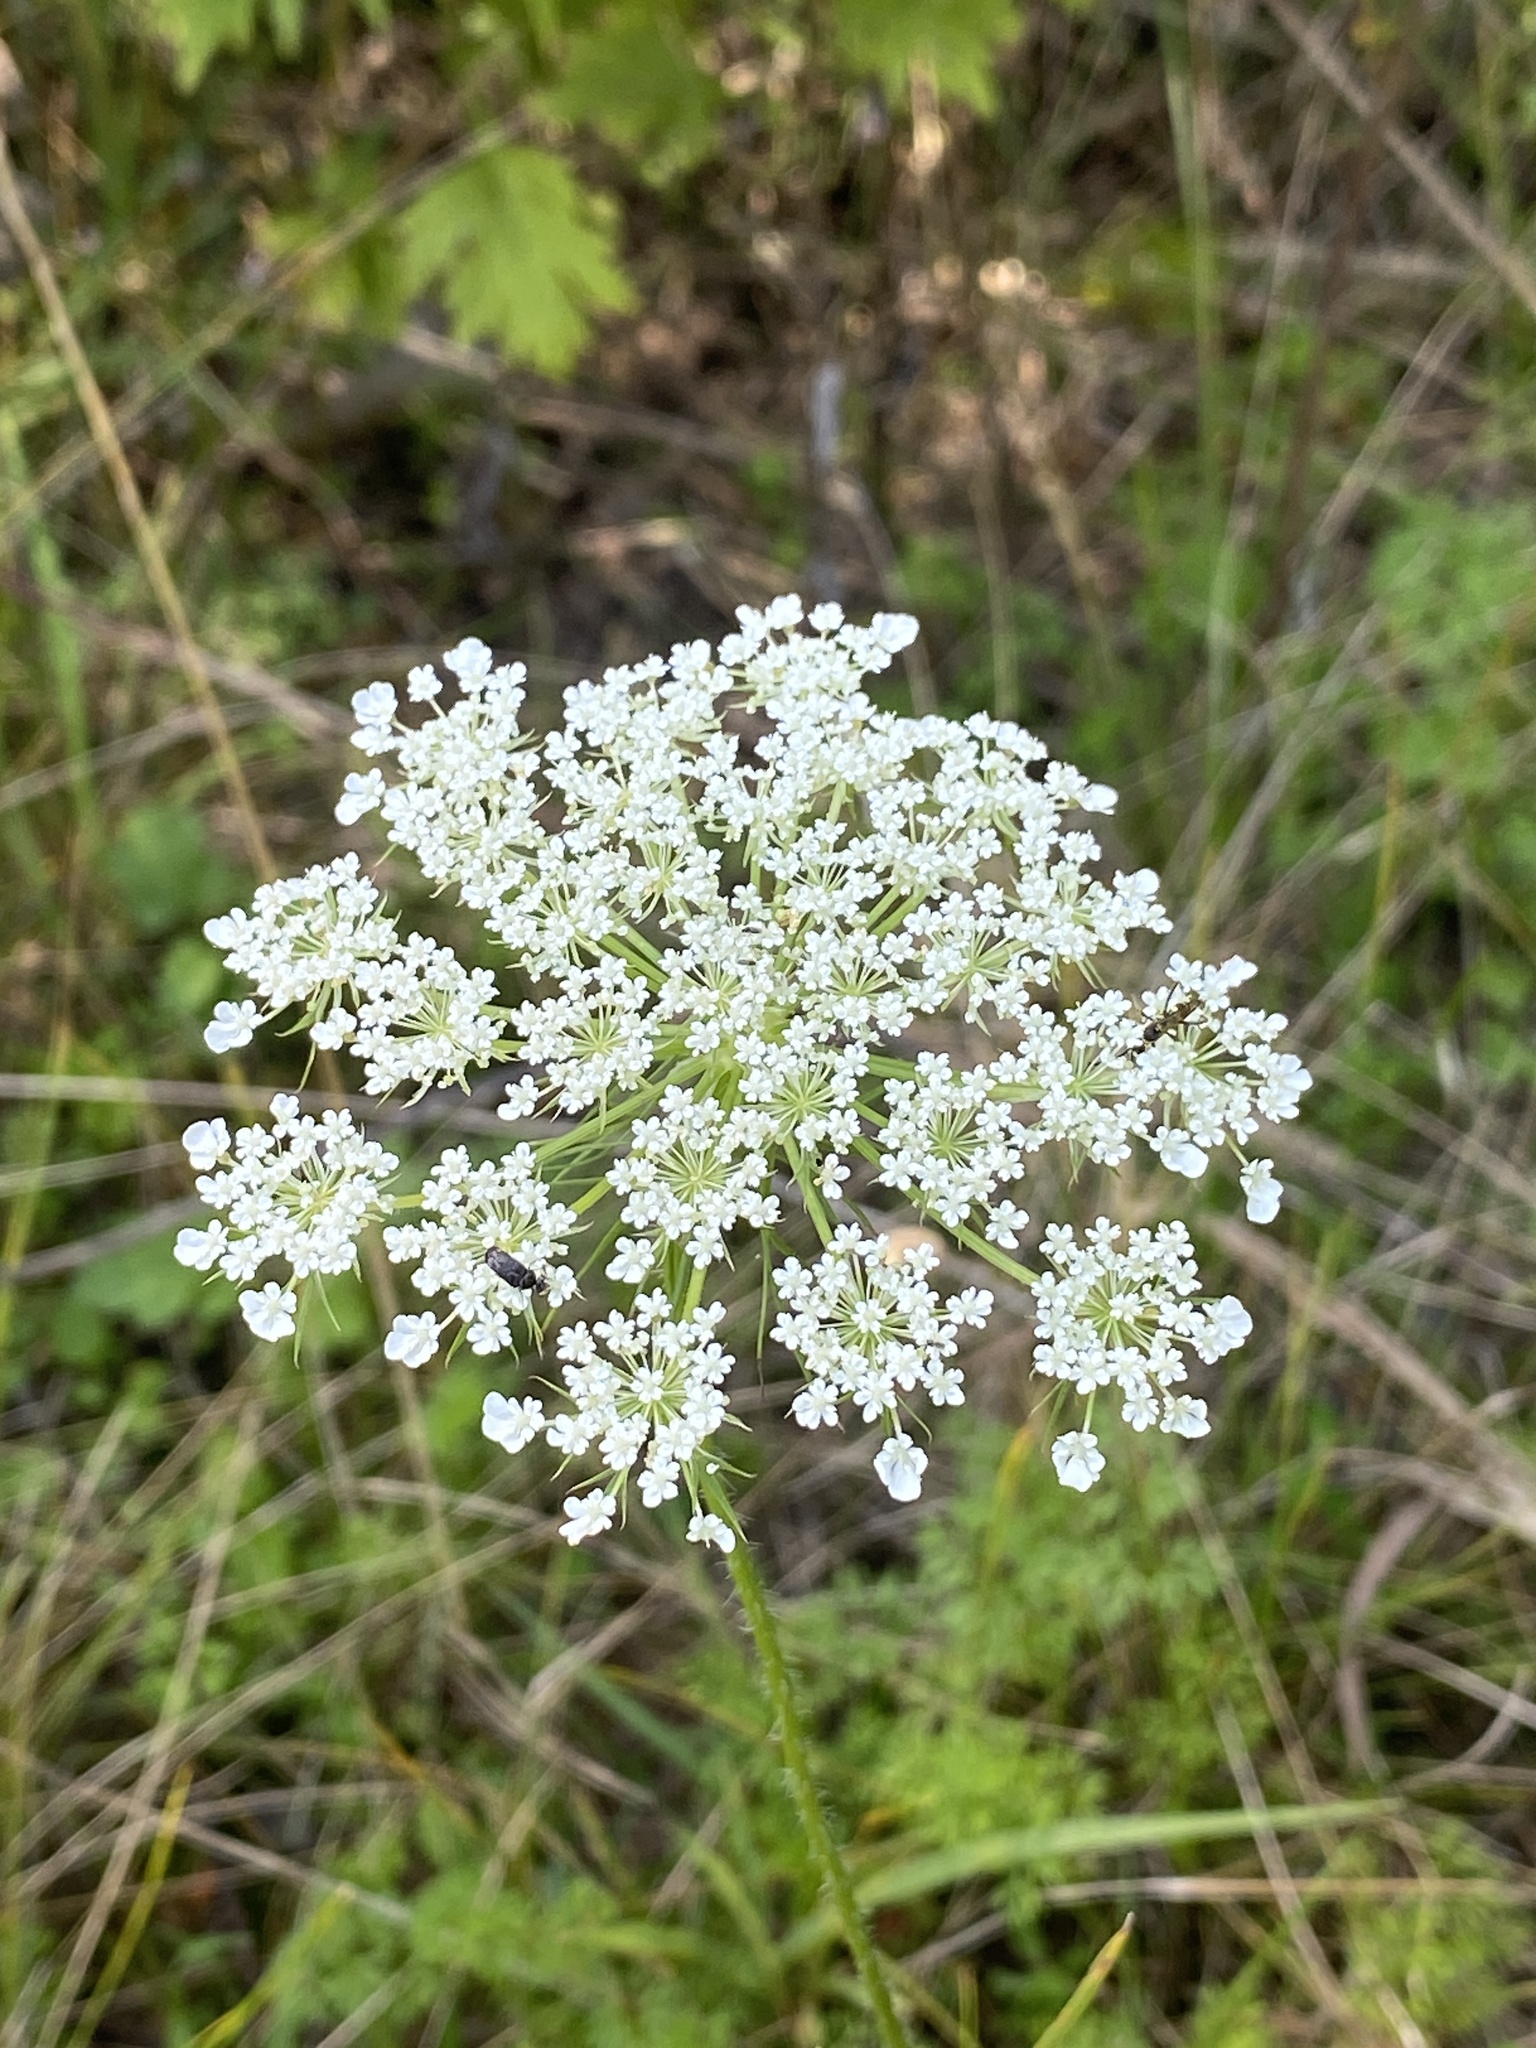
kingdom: Plantae
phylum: Tracheophyta
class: Magnoliopsida
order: Apiales
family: Apiaceae
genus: Daucus
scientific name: Daucus carota
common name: Wild carrot
